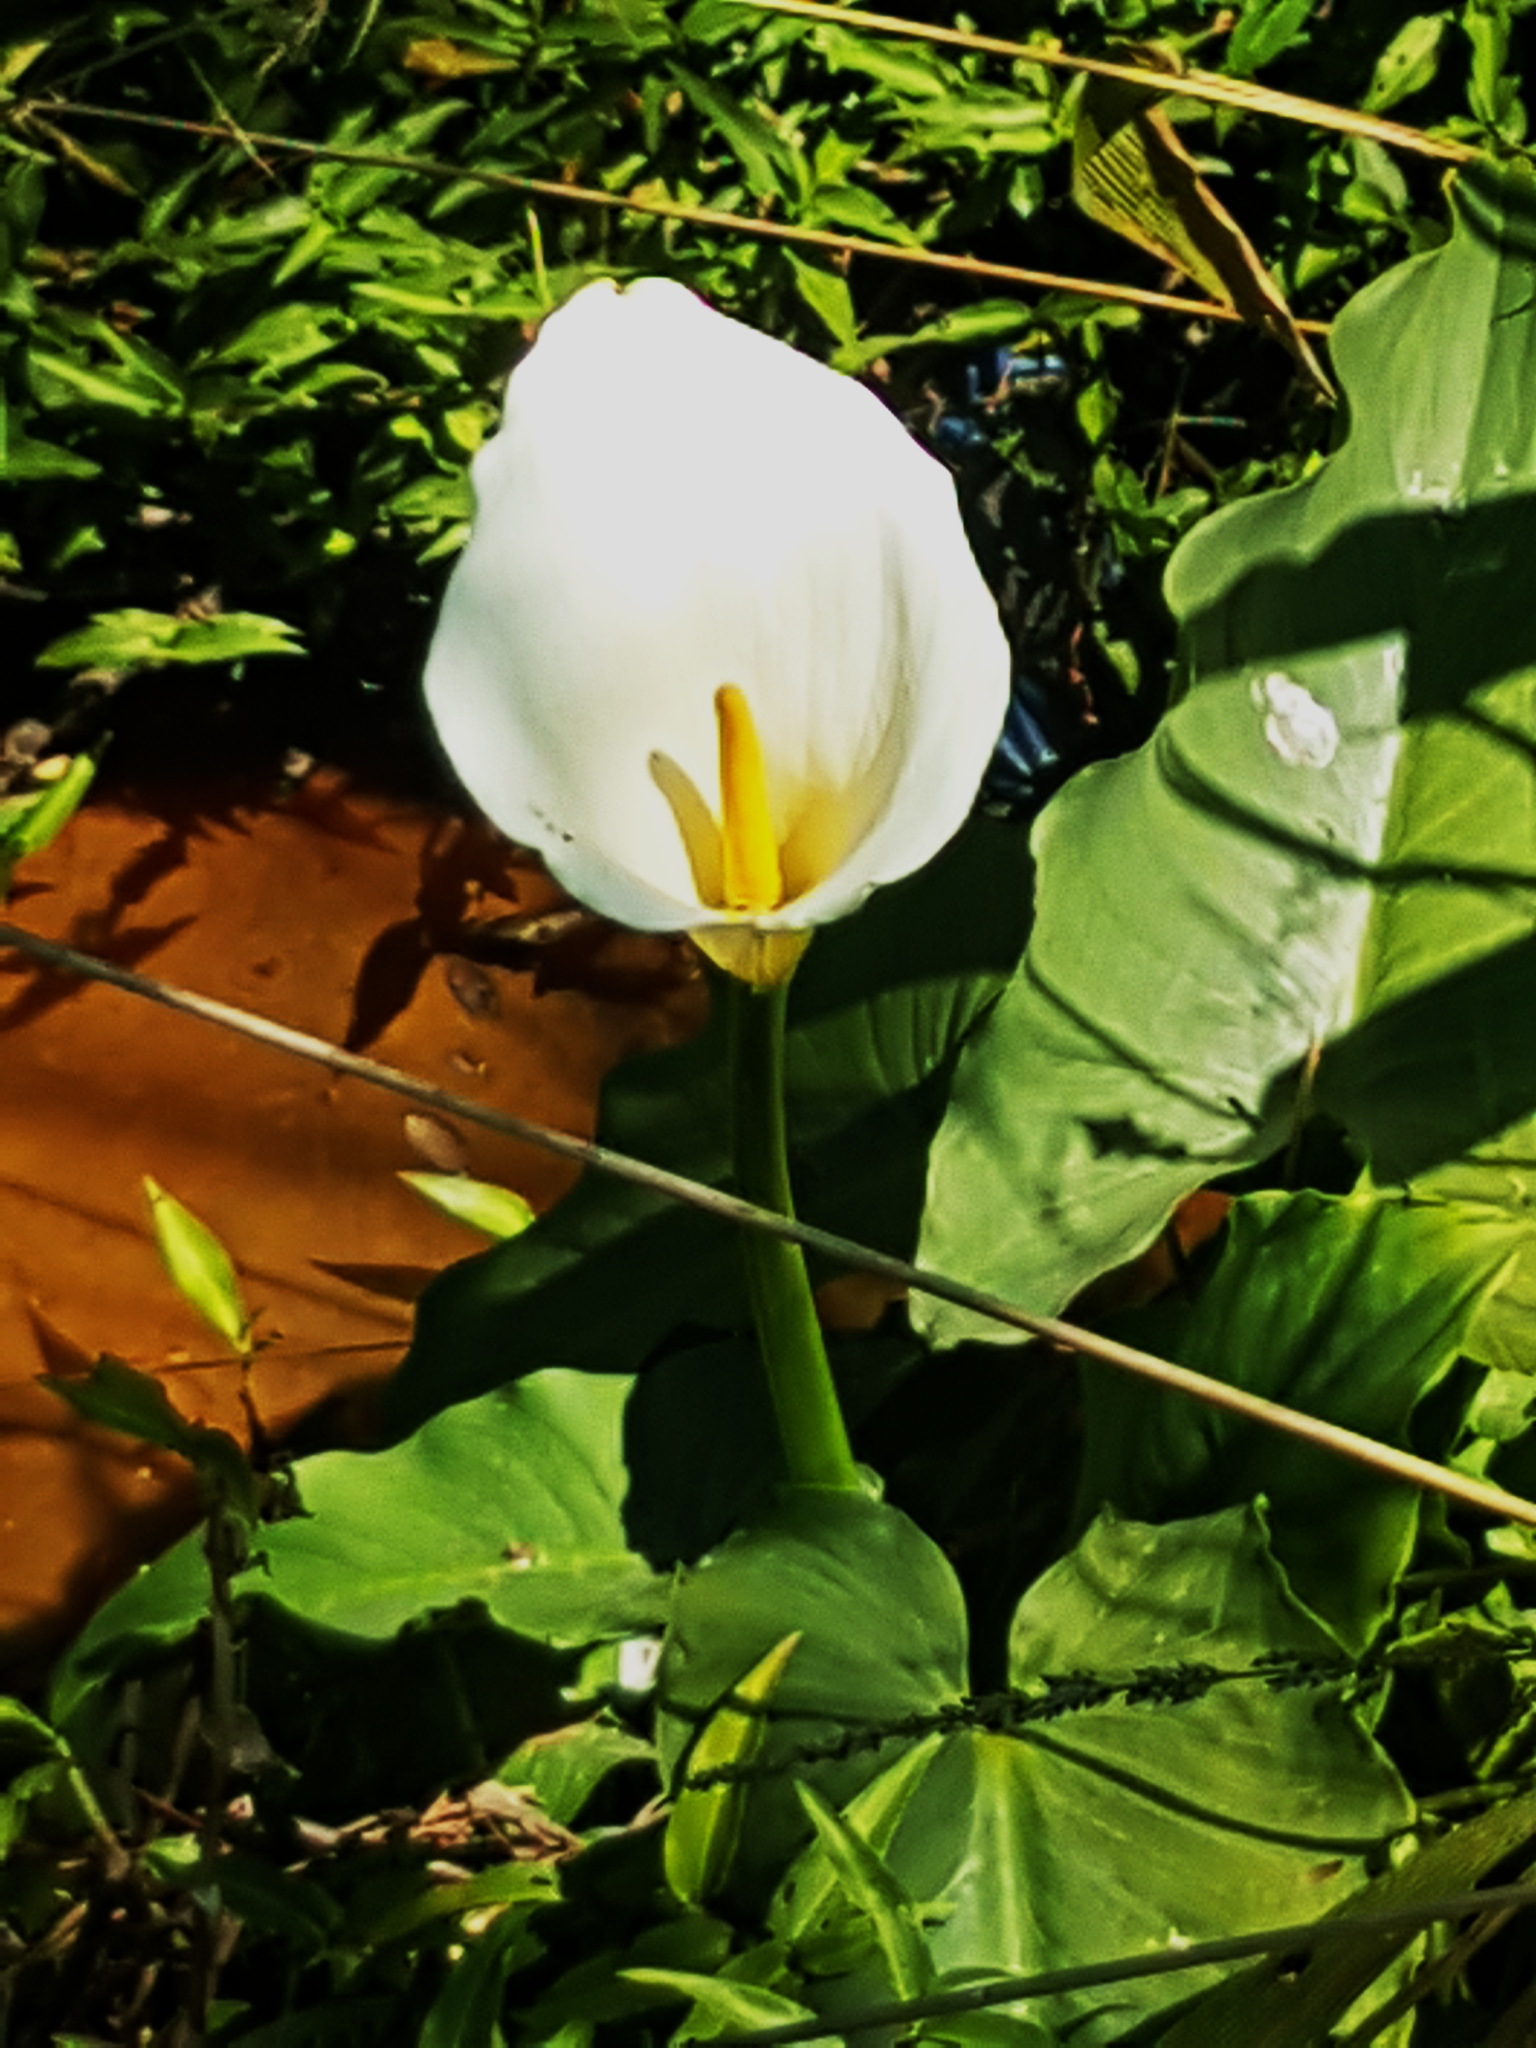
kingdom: Plantae
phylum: Tracheophyta
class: Liliopsida
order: Alismatales
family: Araceae
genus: Zantedeschia
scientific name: Zantedeschia aethiopica
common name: Altar-lily
